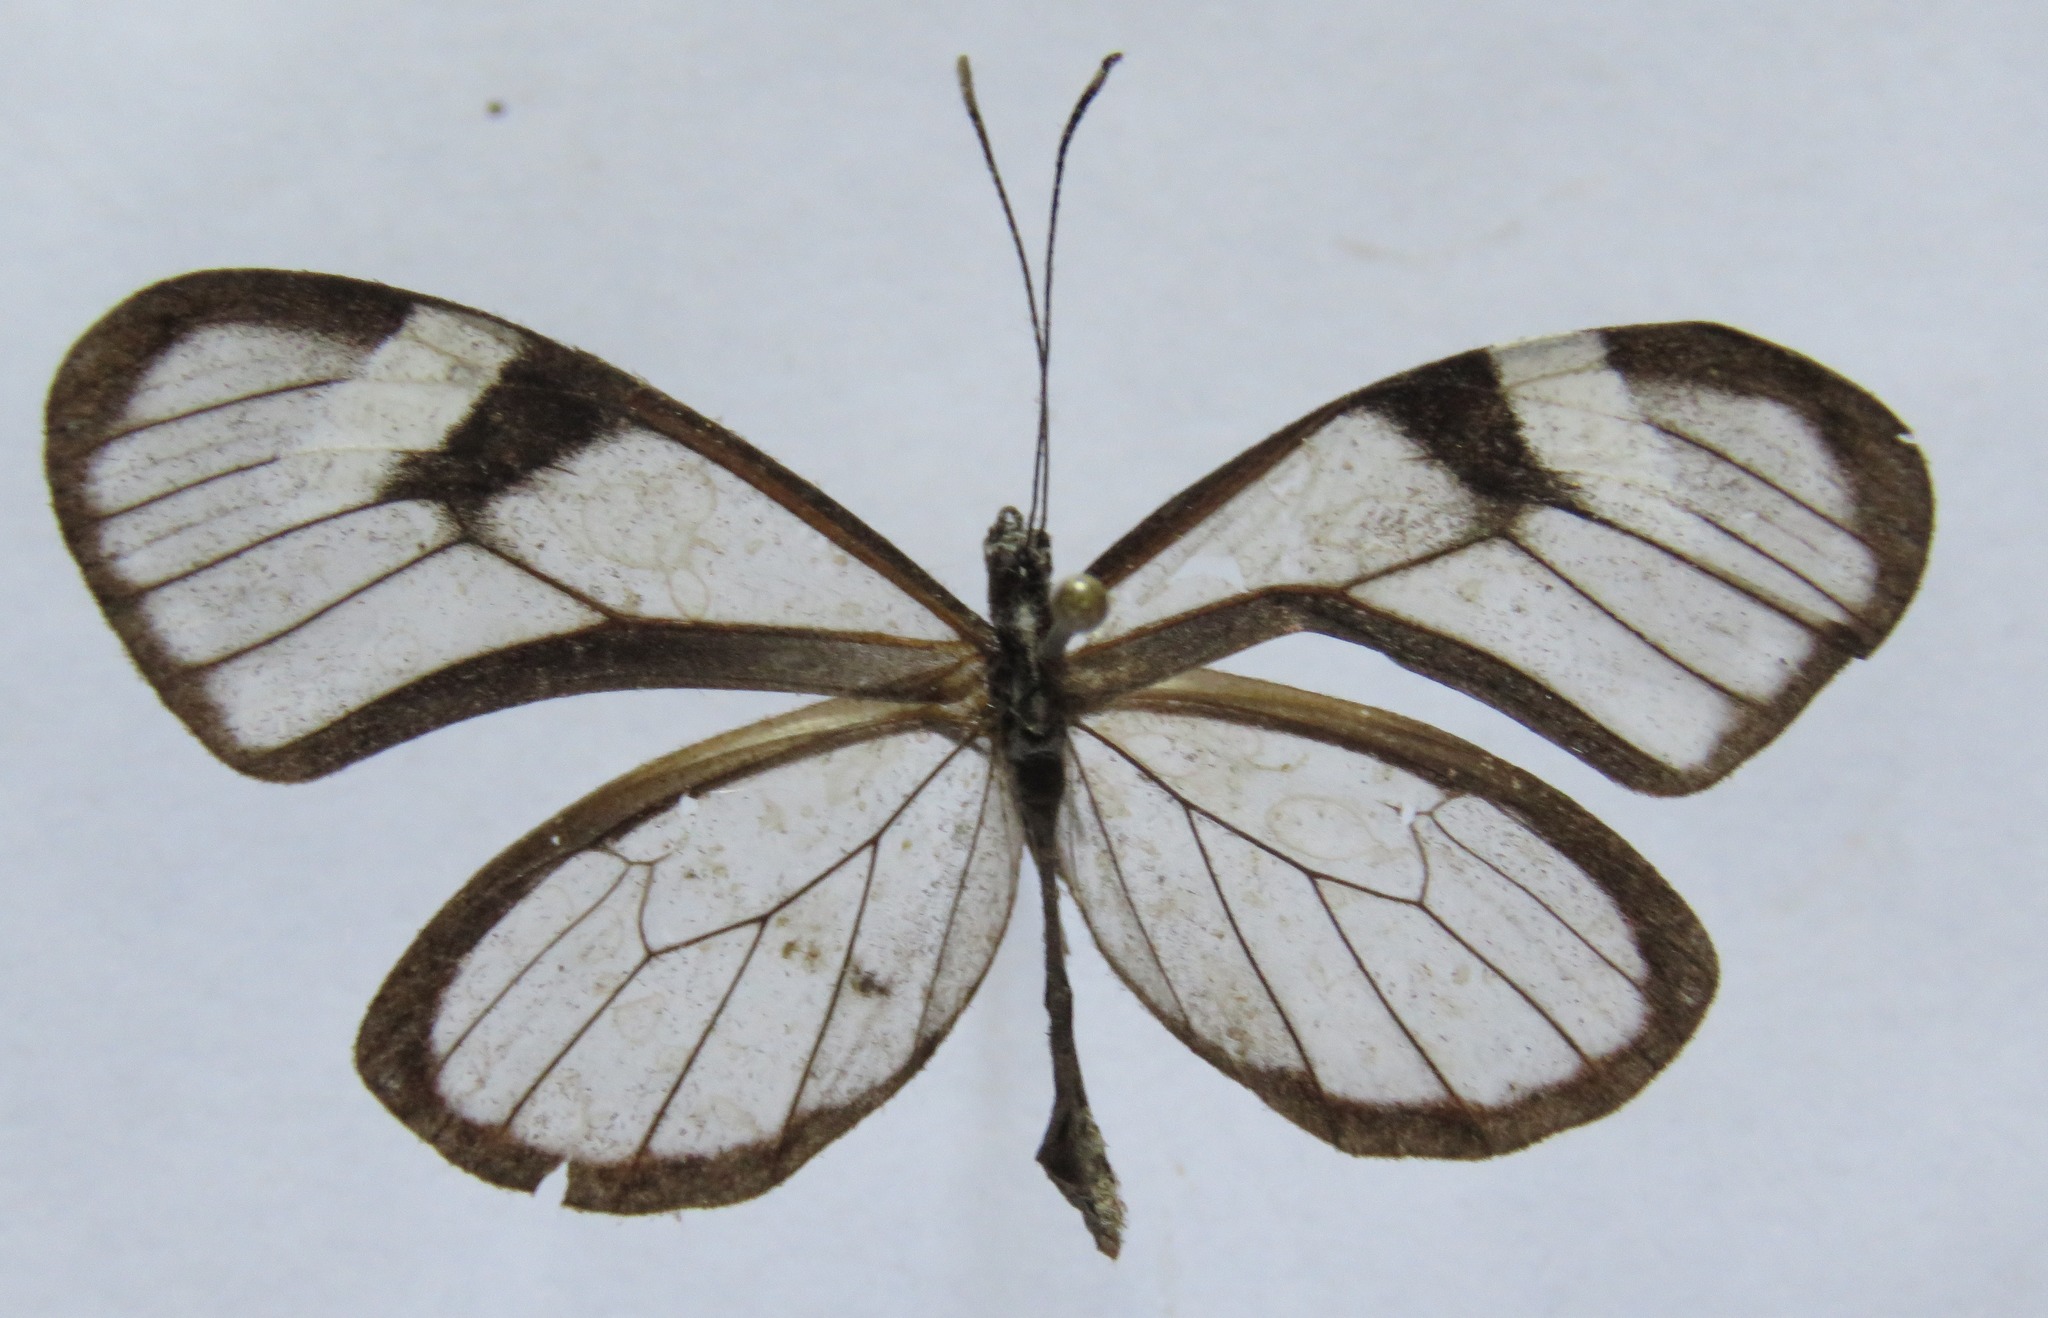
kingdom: Animalia
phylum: Arthropoda
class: Insecta
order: Lepidoptera
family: Nymphalidae
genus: Pteronymia
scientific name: Pteronymia alcmena
